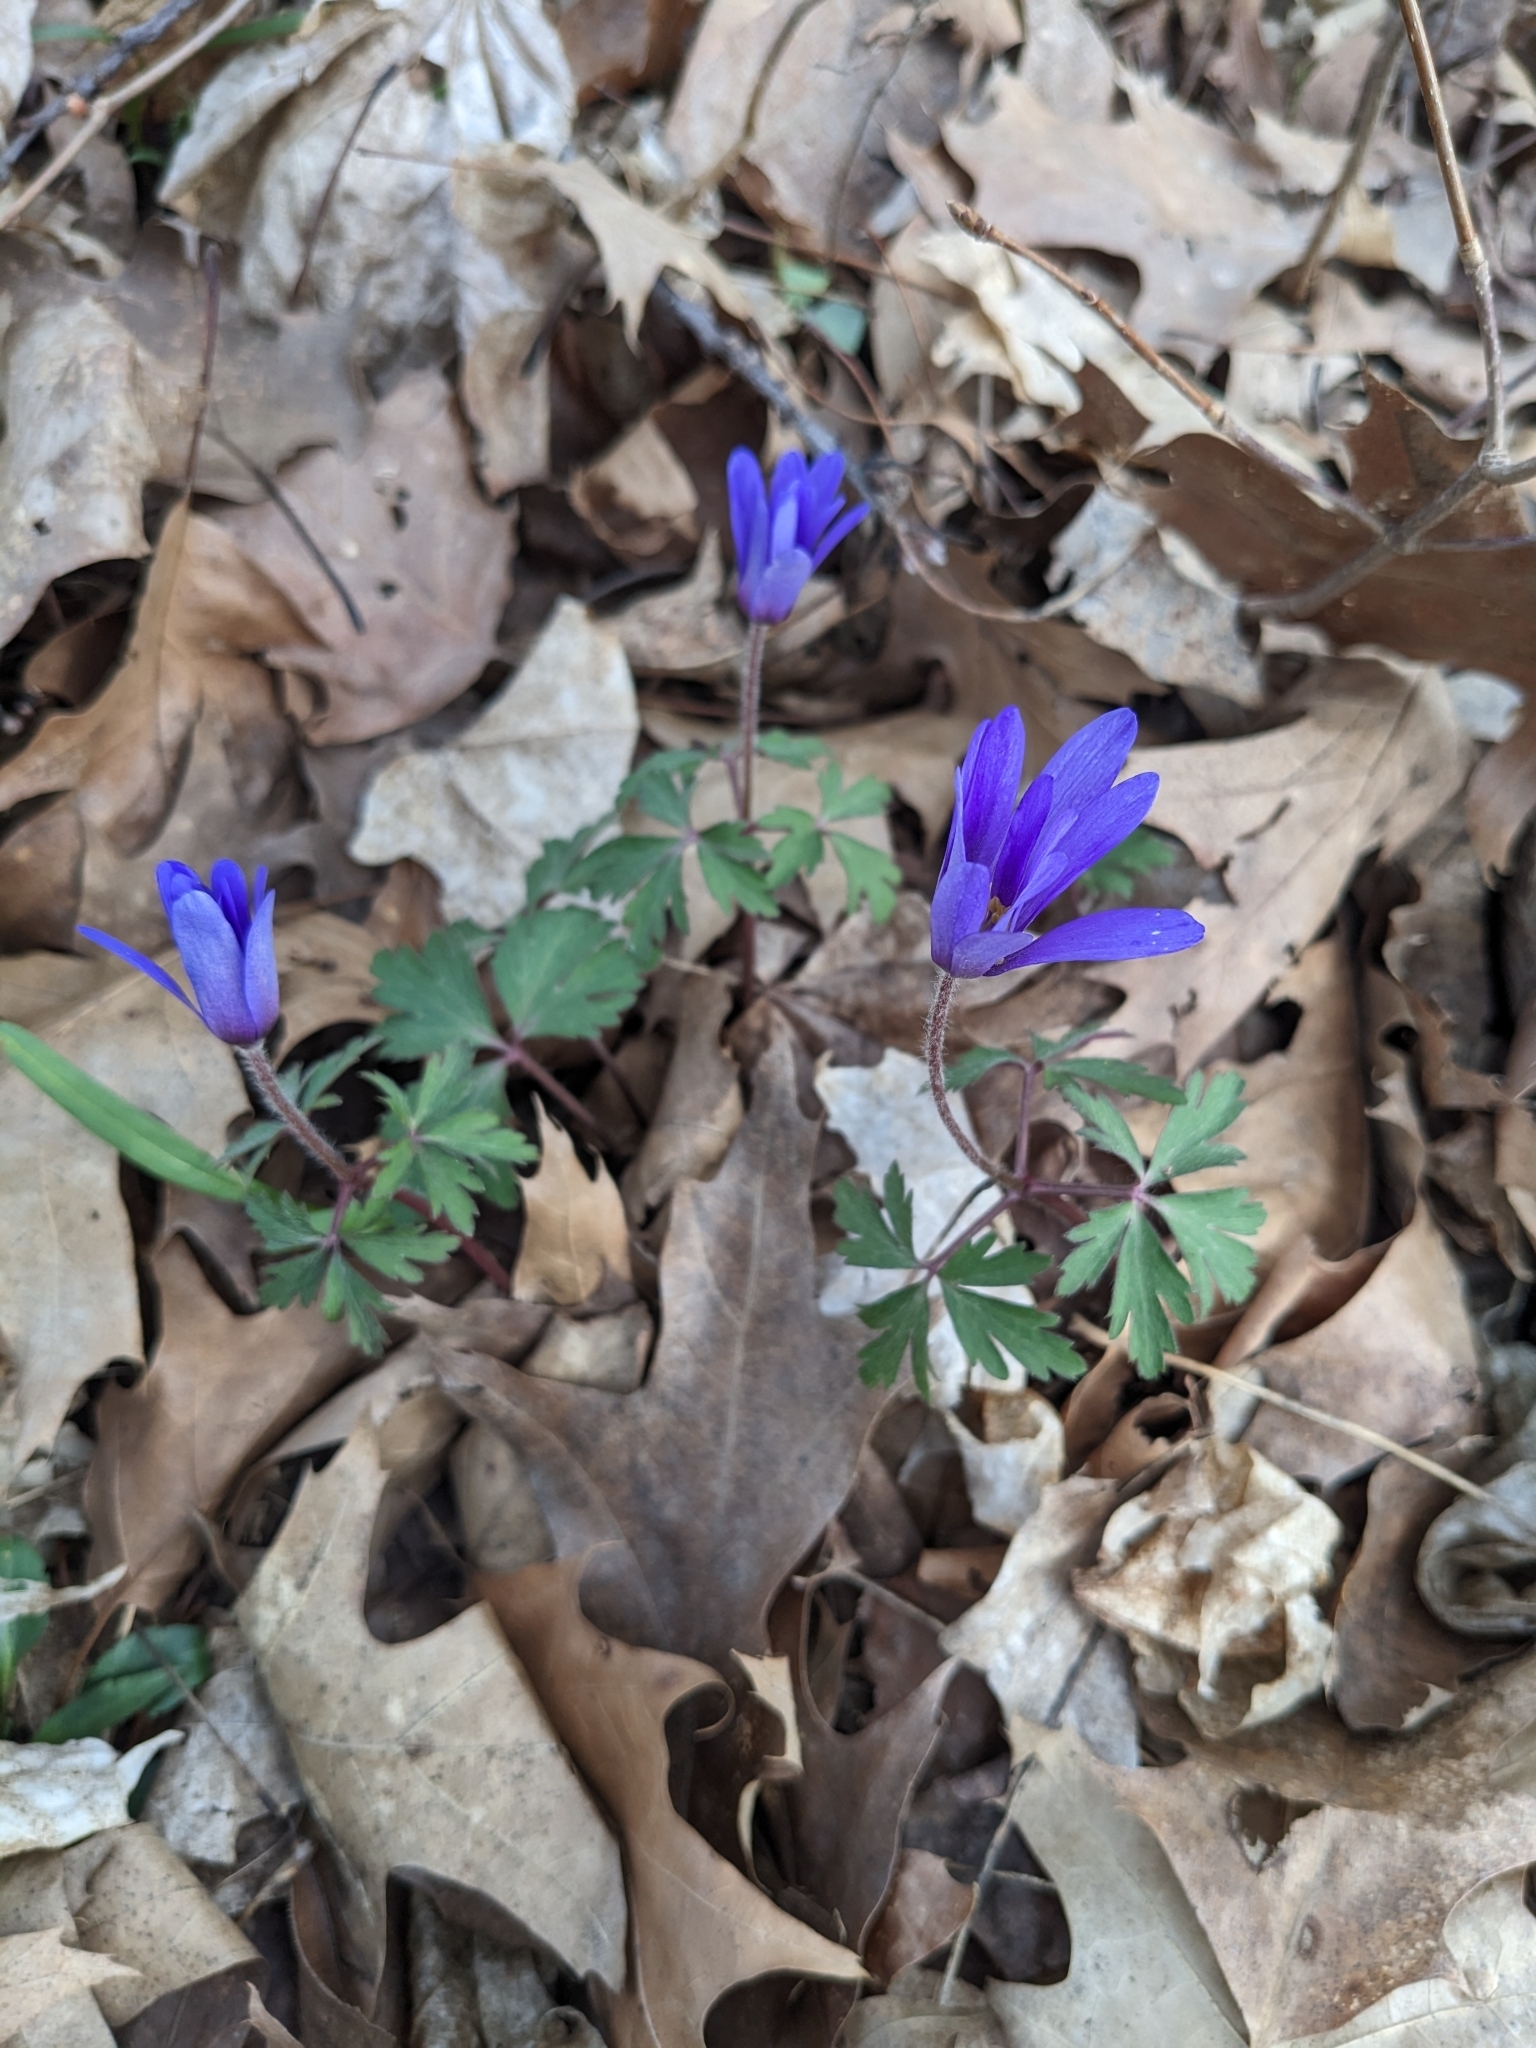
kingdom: Plantae
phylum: Tracheophyta
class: Magnoliopsida
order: Ranunculales
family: Ranunculaceae
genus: Anemone
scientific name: Anemone blanda
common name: Balkan anemone
